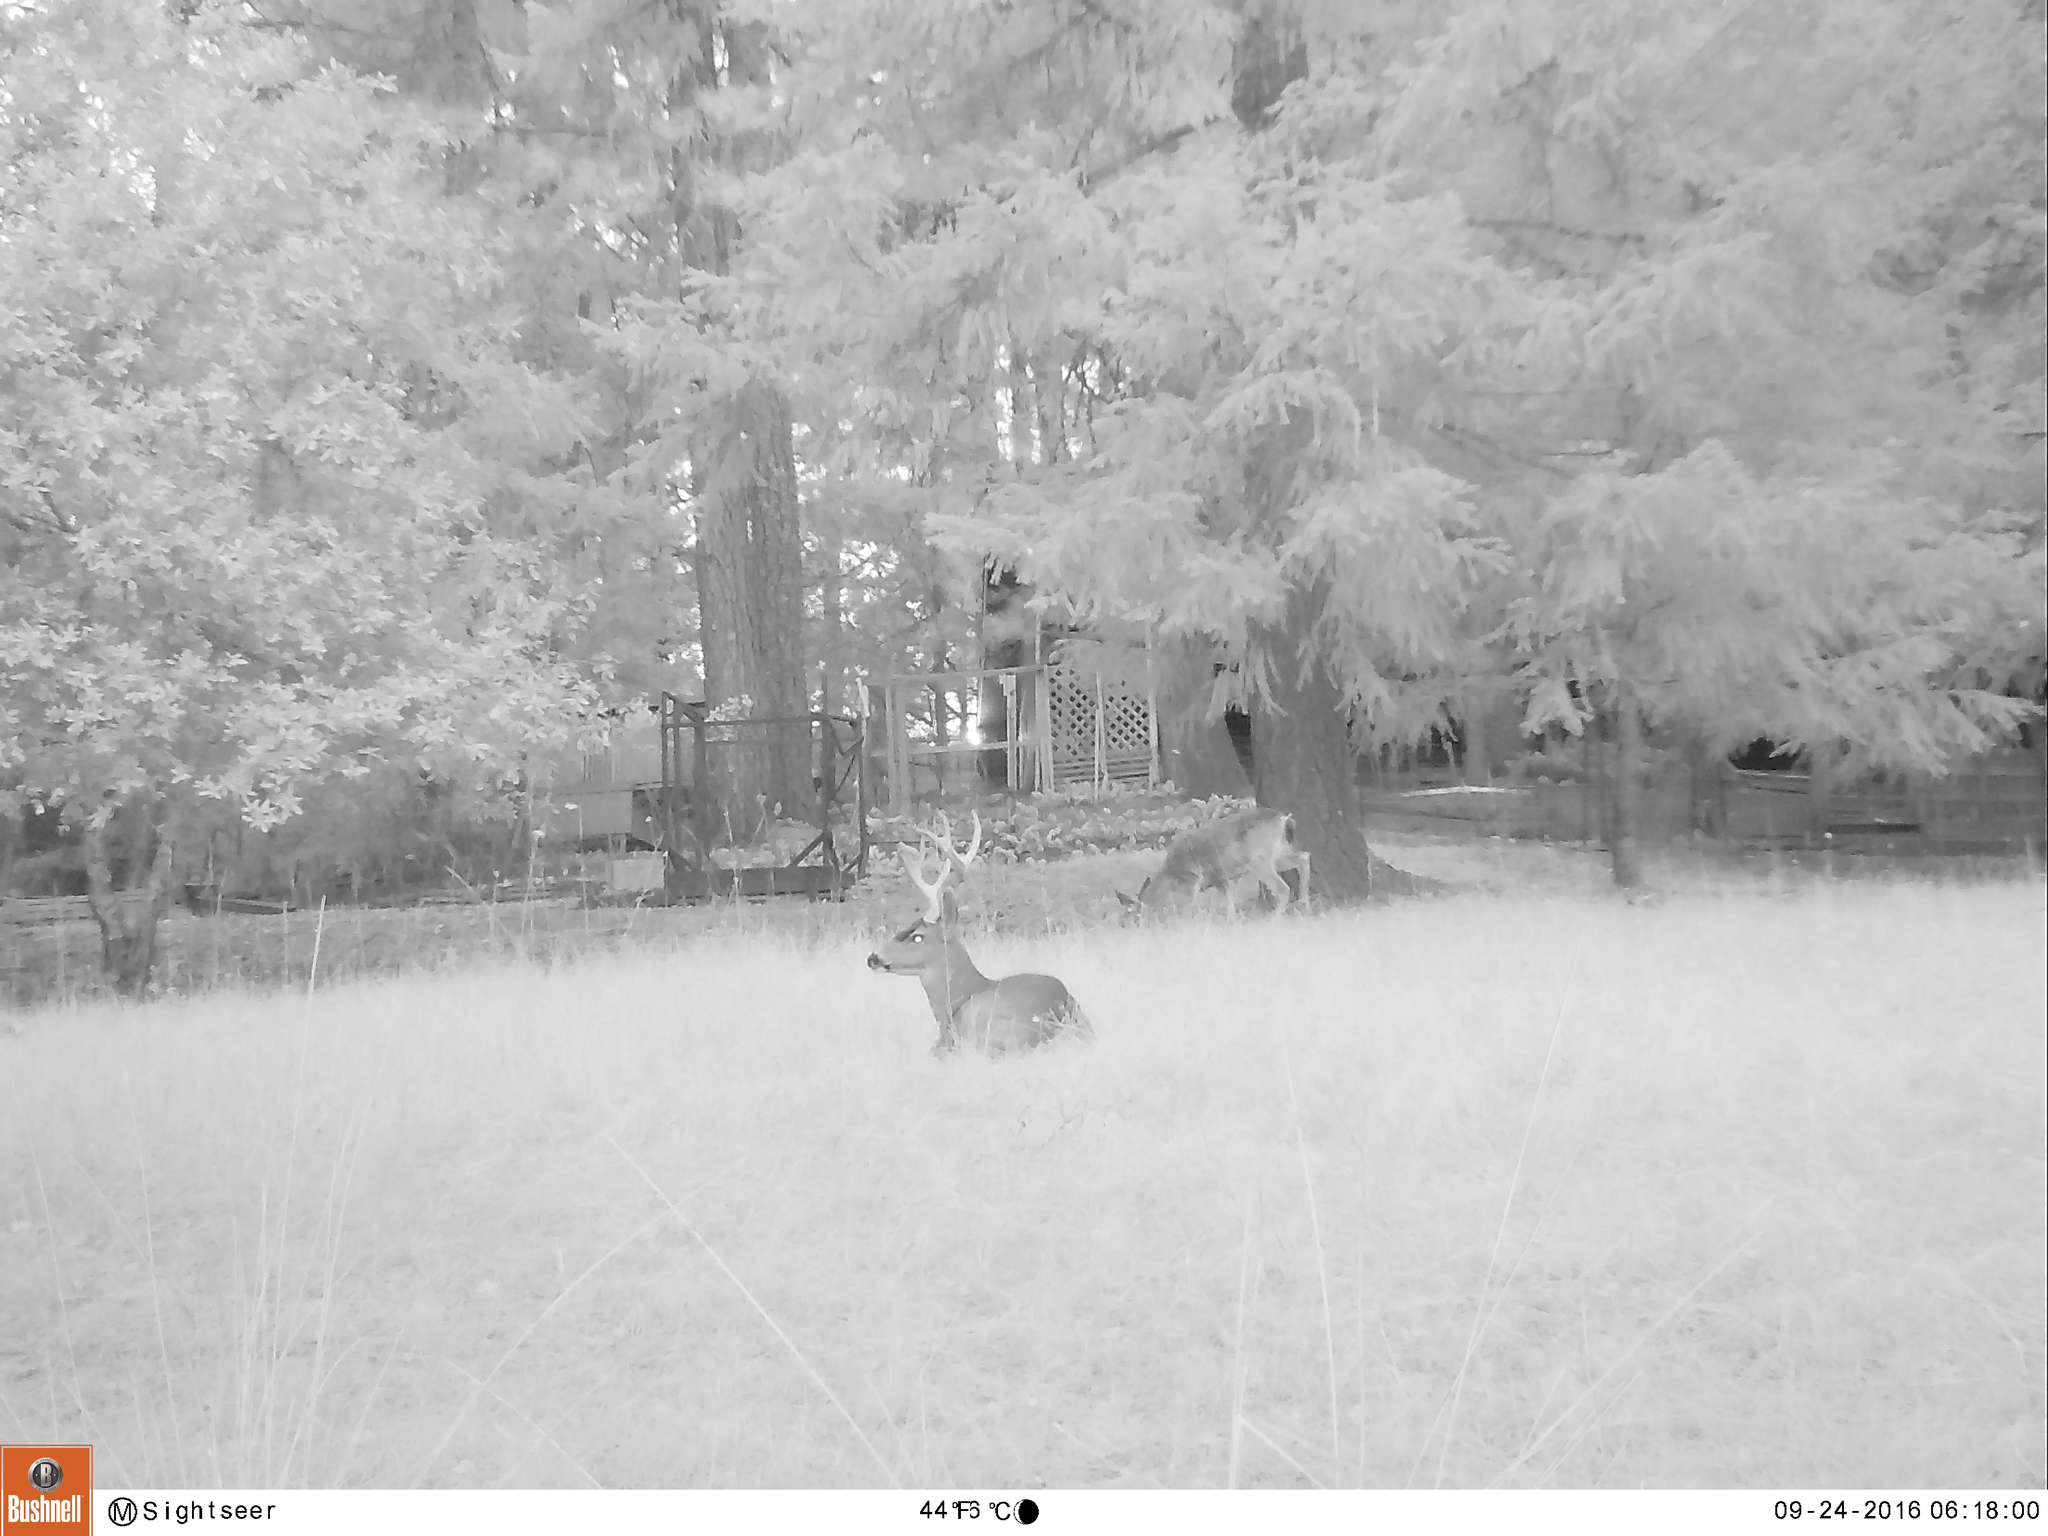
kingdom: Animalia
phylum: Chordata
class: Mammalia
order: Artiodactyla
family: Cervidae
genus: Odocoileus
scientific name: Odocoileus hemionus
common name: Mule deer
